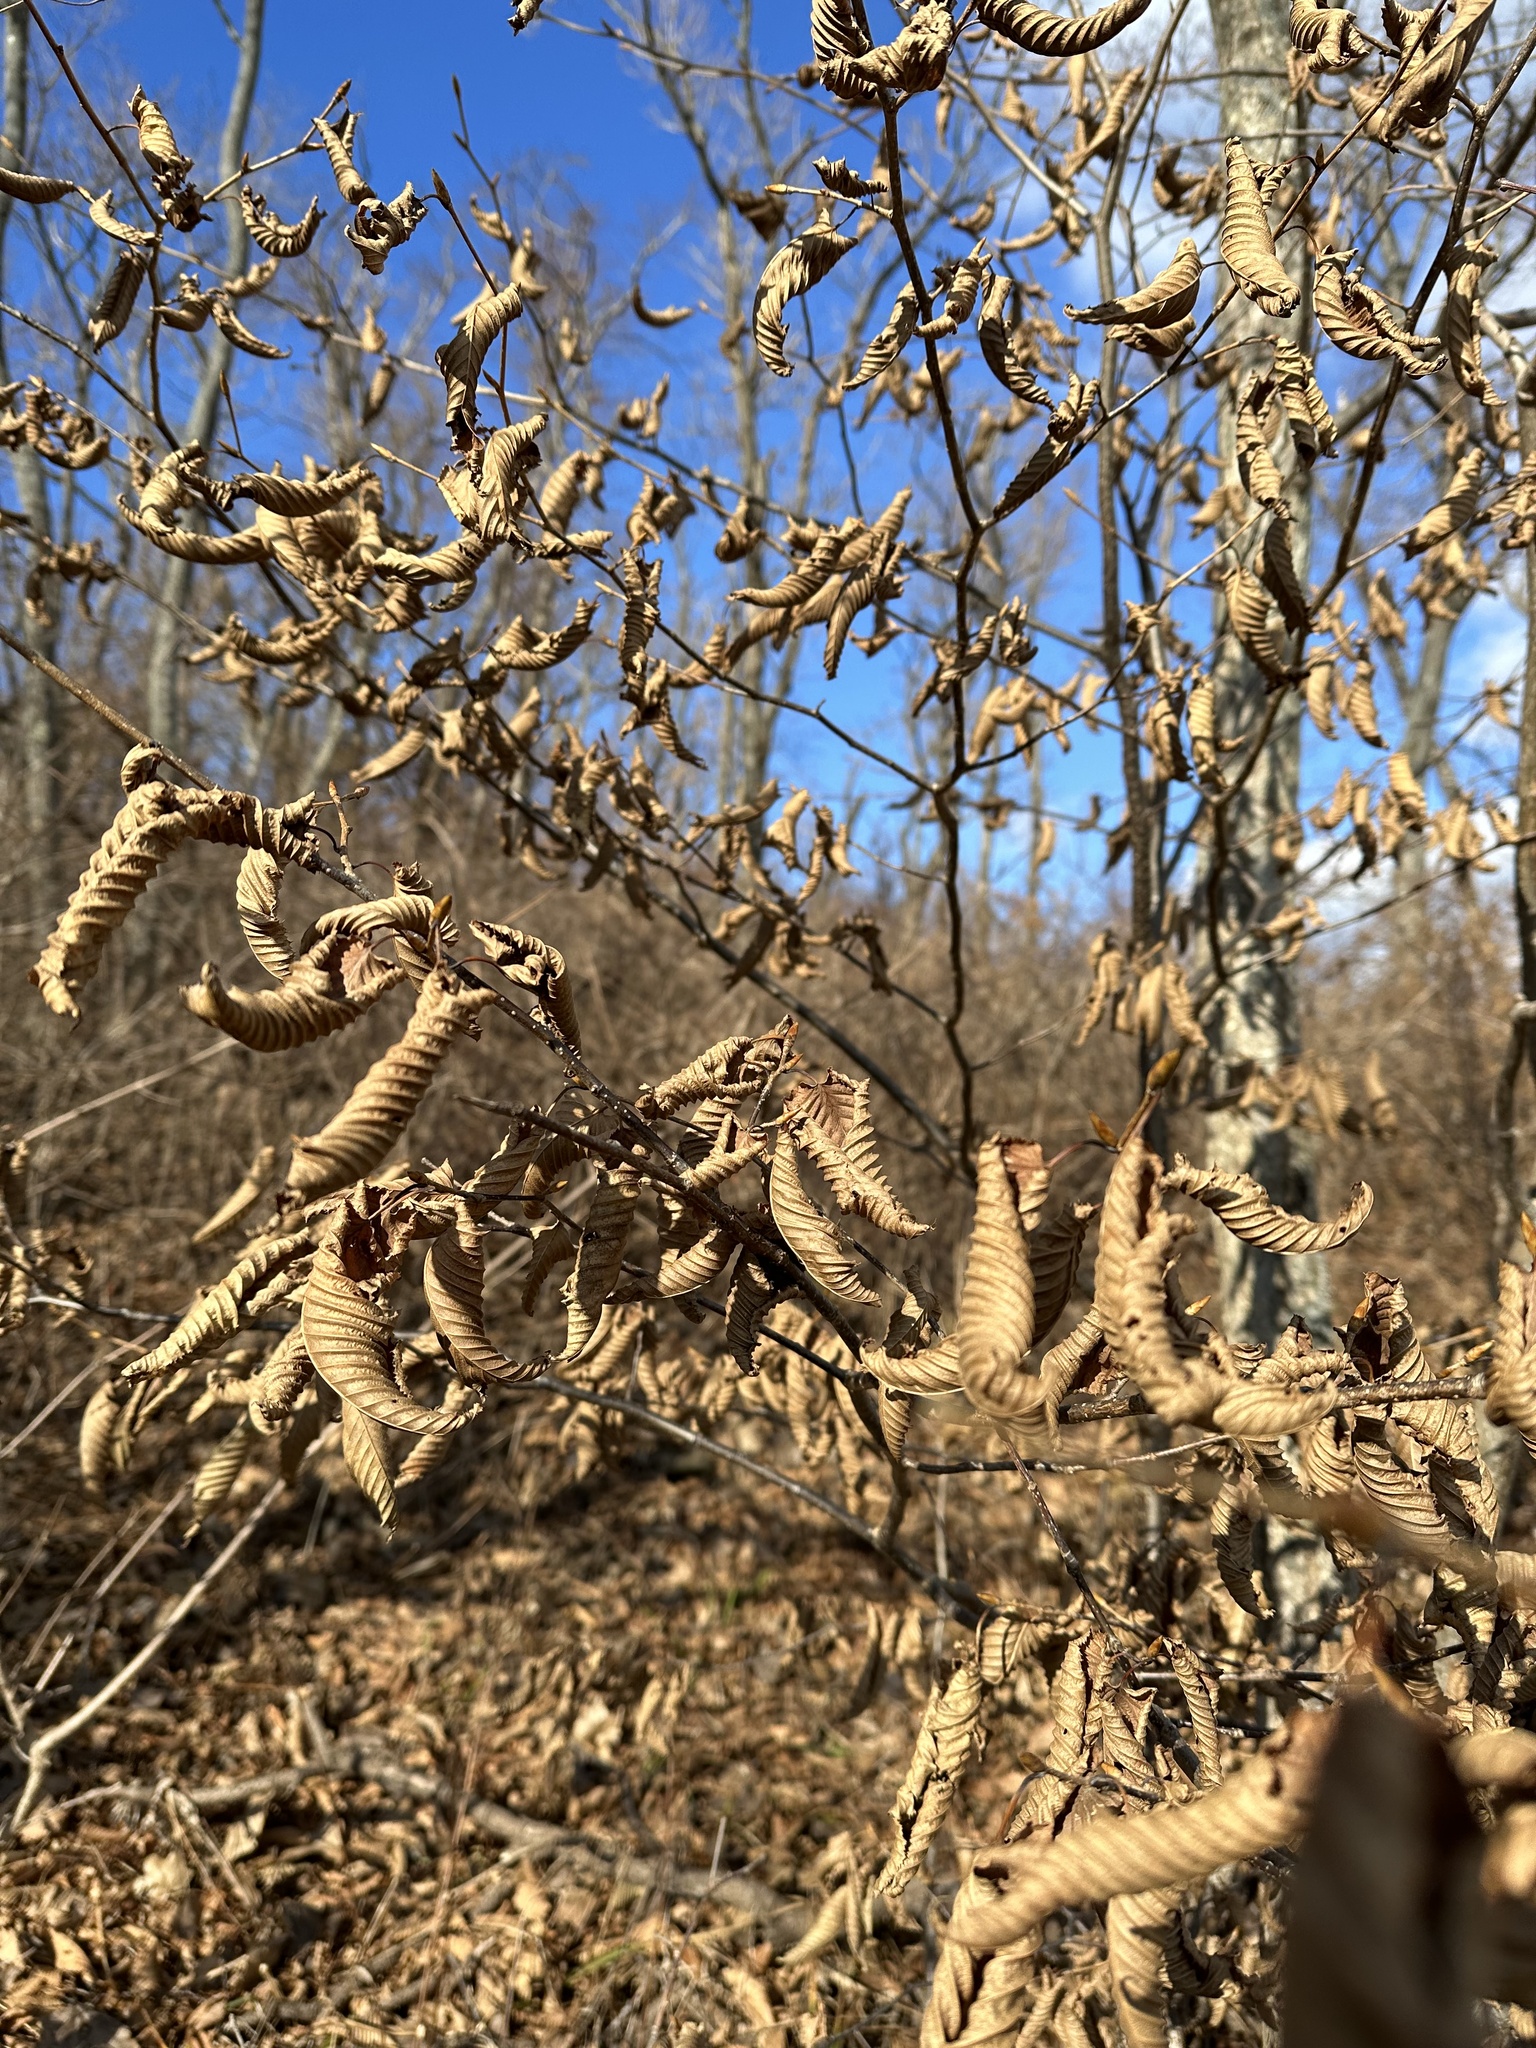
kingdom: Plantae
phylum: Tracheophyta
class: Magnoliopsida
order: Fagales
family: Betulaceae
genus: Carpinus
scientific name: Carpinus cordata
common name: Sawa hornbeam
